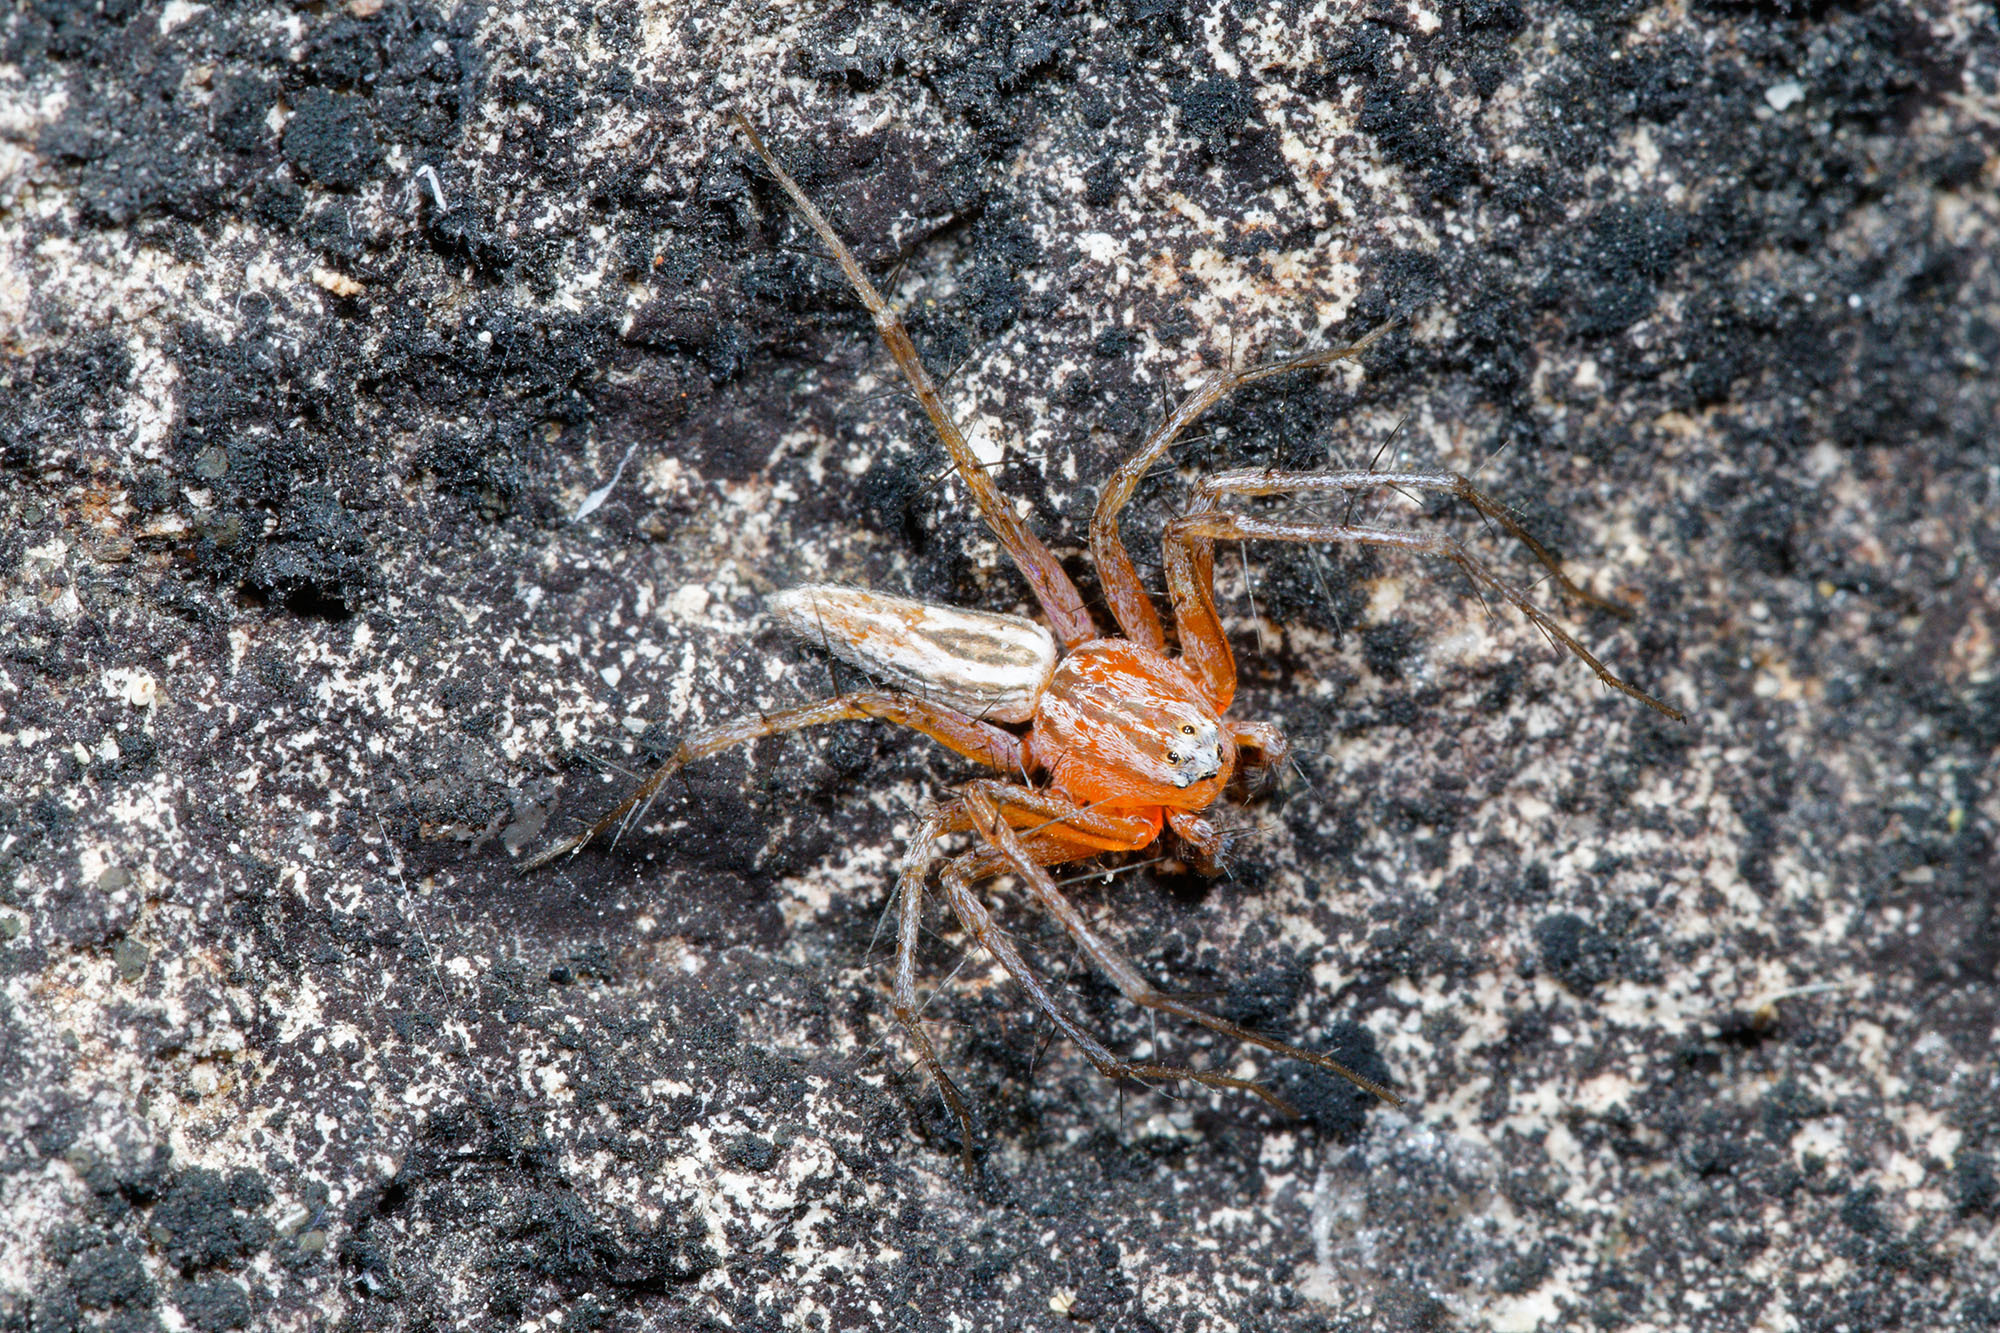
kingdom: Animalia
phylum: Arthropoda
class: Arachnida
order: Araneae
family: Oxyopidae
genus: Oxyopes
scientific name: Oxyopes papuanus
